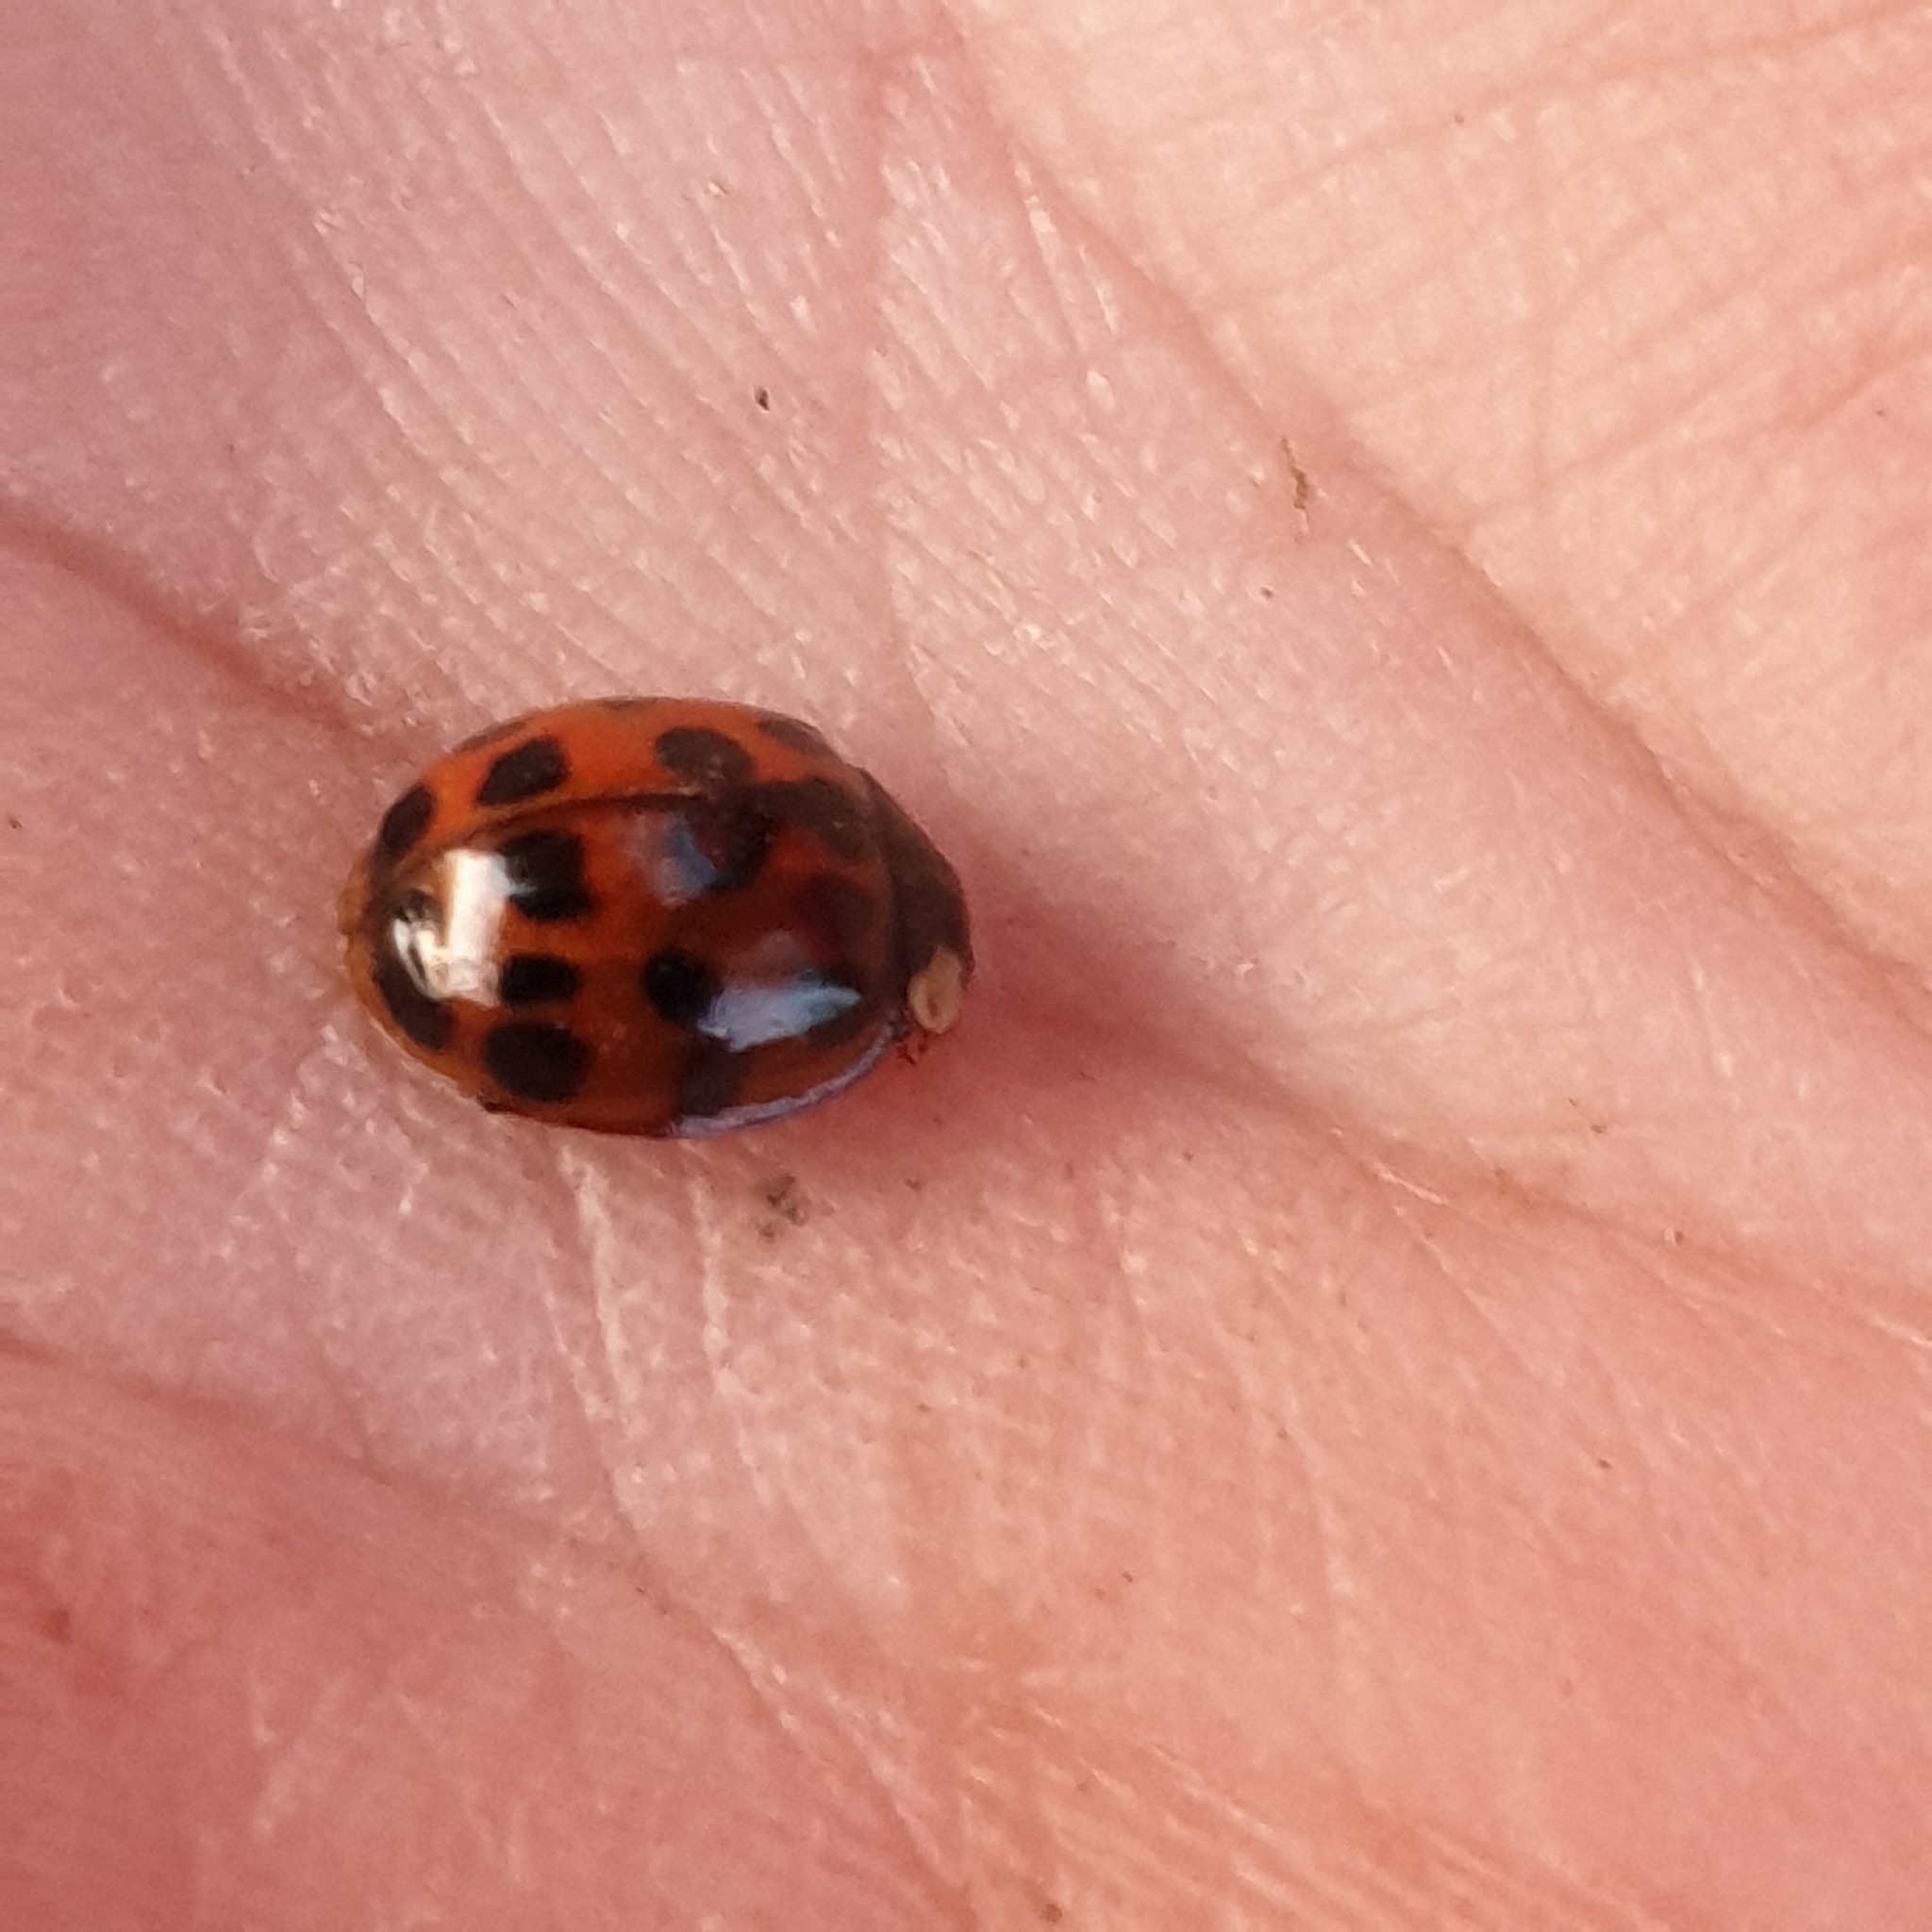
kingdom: Animalia
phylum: Arthropoda
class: Insecta
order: Coleoptera
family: Coccinellidae
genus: Harmonia
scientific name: Harmonia axyridis
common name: Harlequin ladybird
